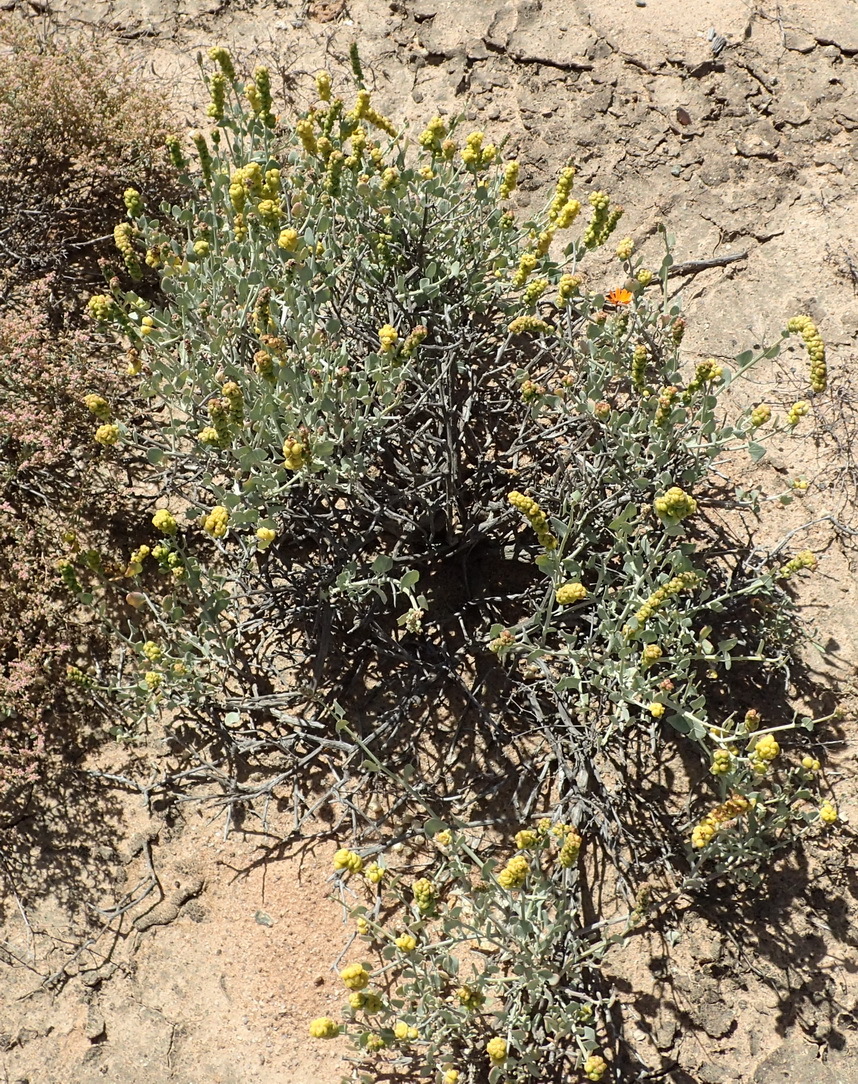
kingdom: Plantae
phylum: Tracheophyta
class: Magnoliopsida
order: Caryophyllales
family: Amaranthaceae
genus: Exomis
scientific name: Exomis albicans
